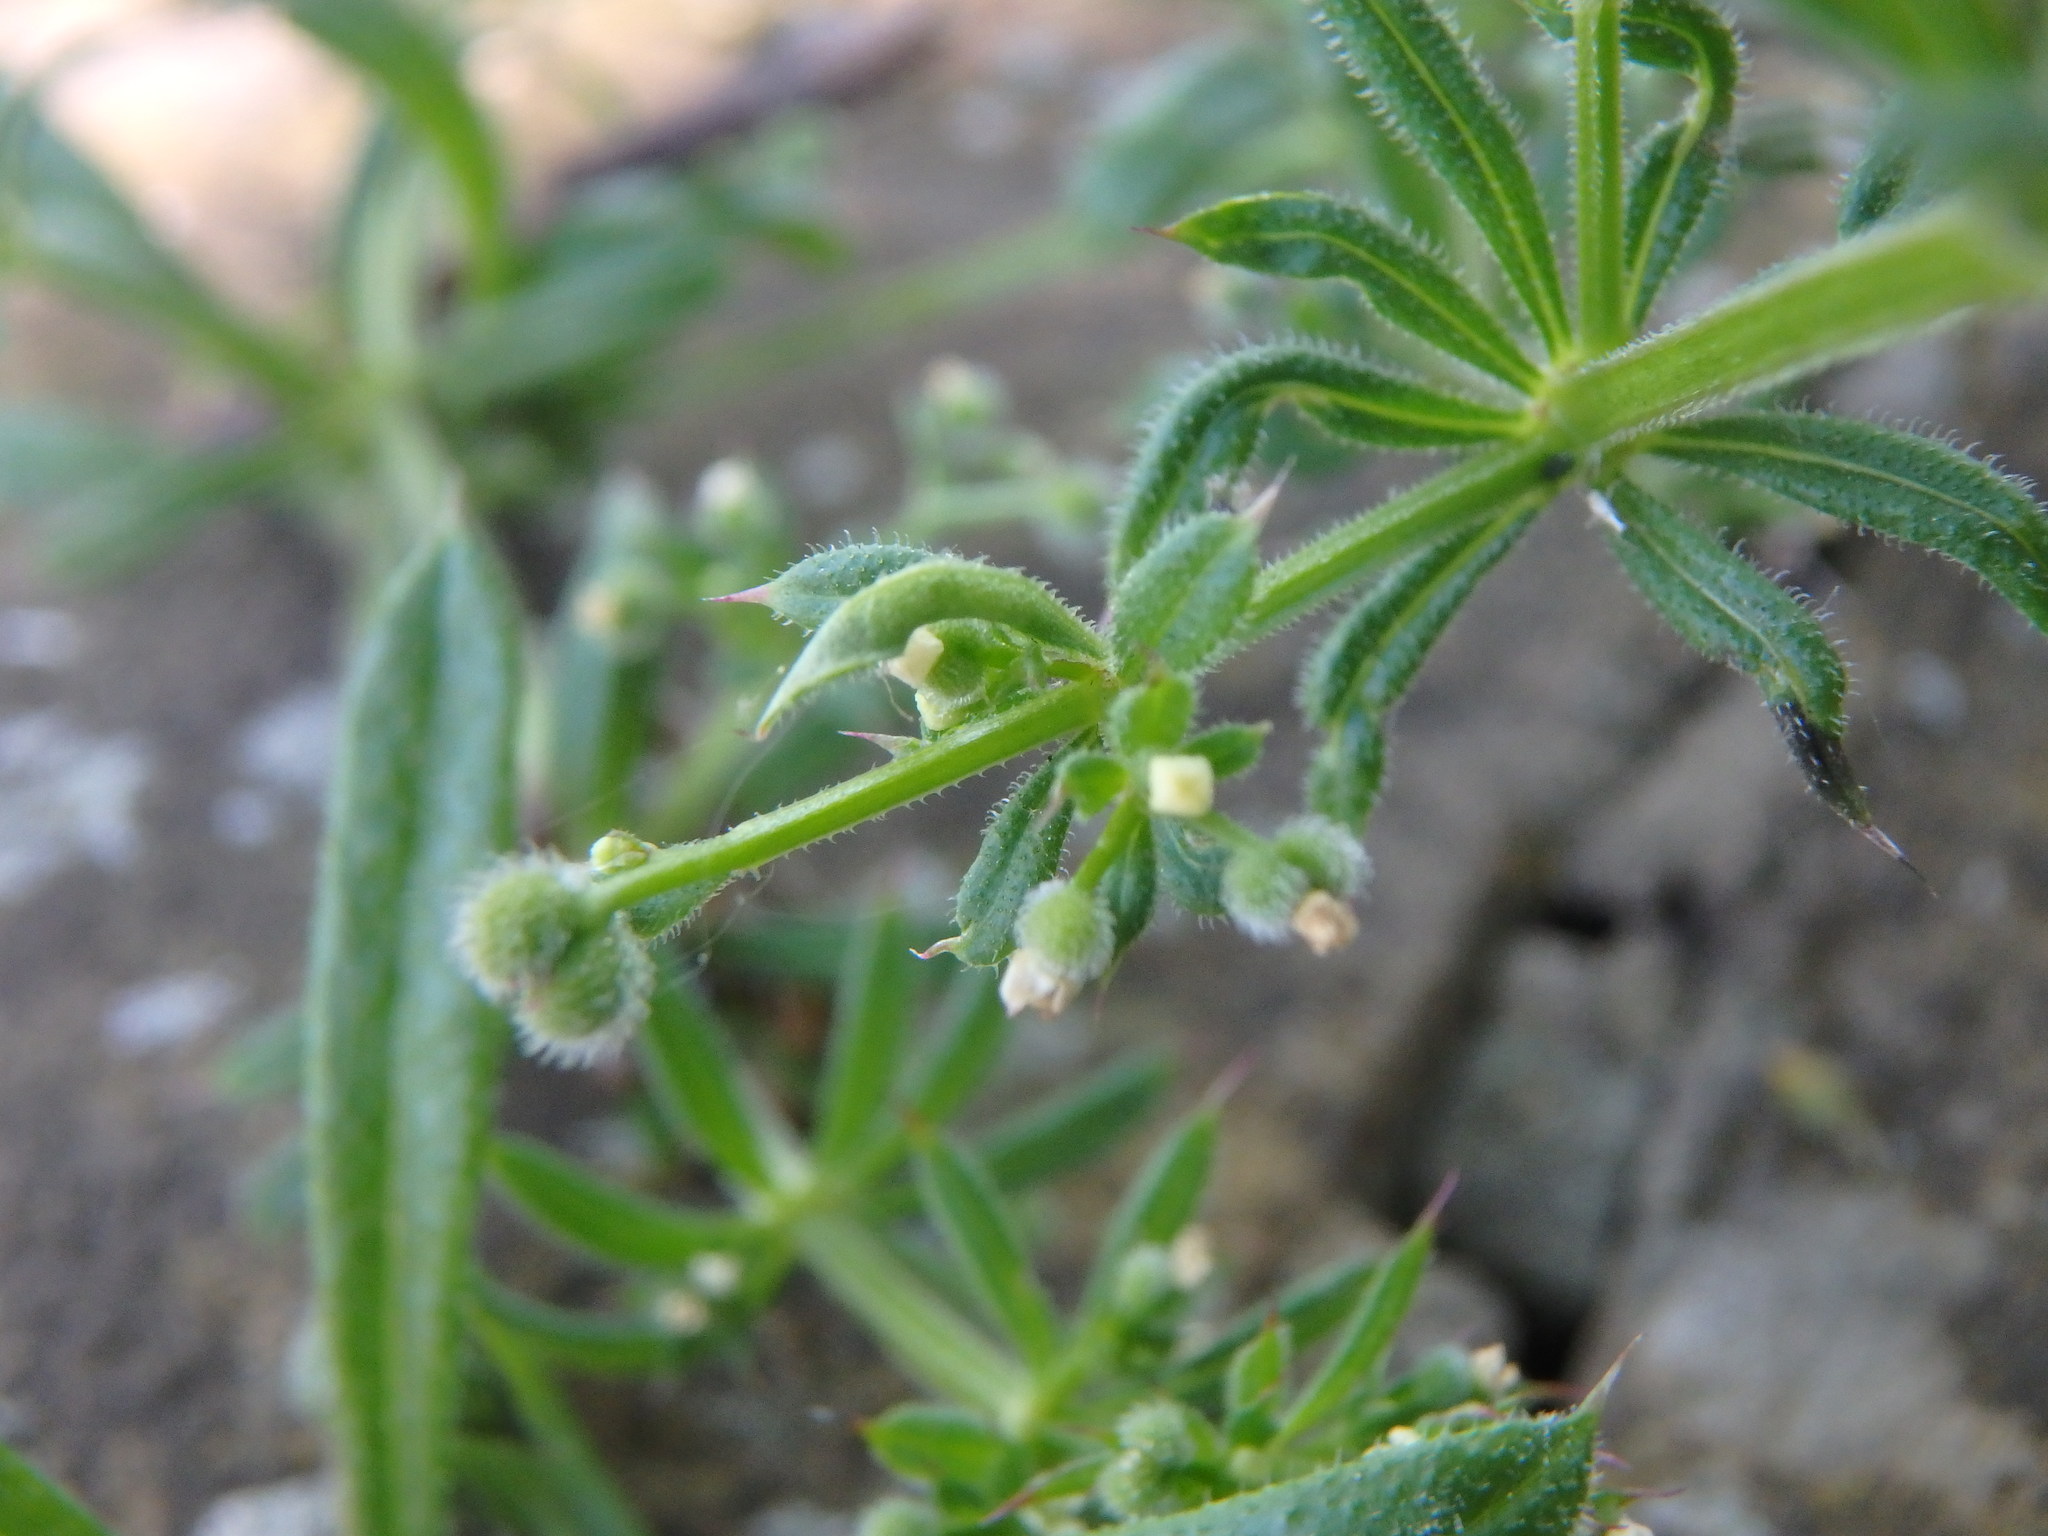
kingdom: Plantae
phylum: Tracheophyta
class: Magnoliopsida
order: Gentianales
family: Rubiaceae
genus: Galium
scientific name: Galium aparine
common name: Cleavers
